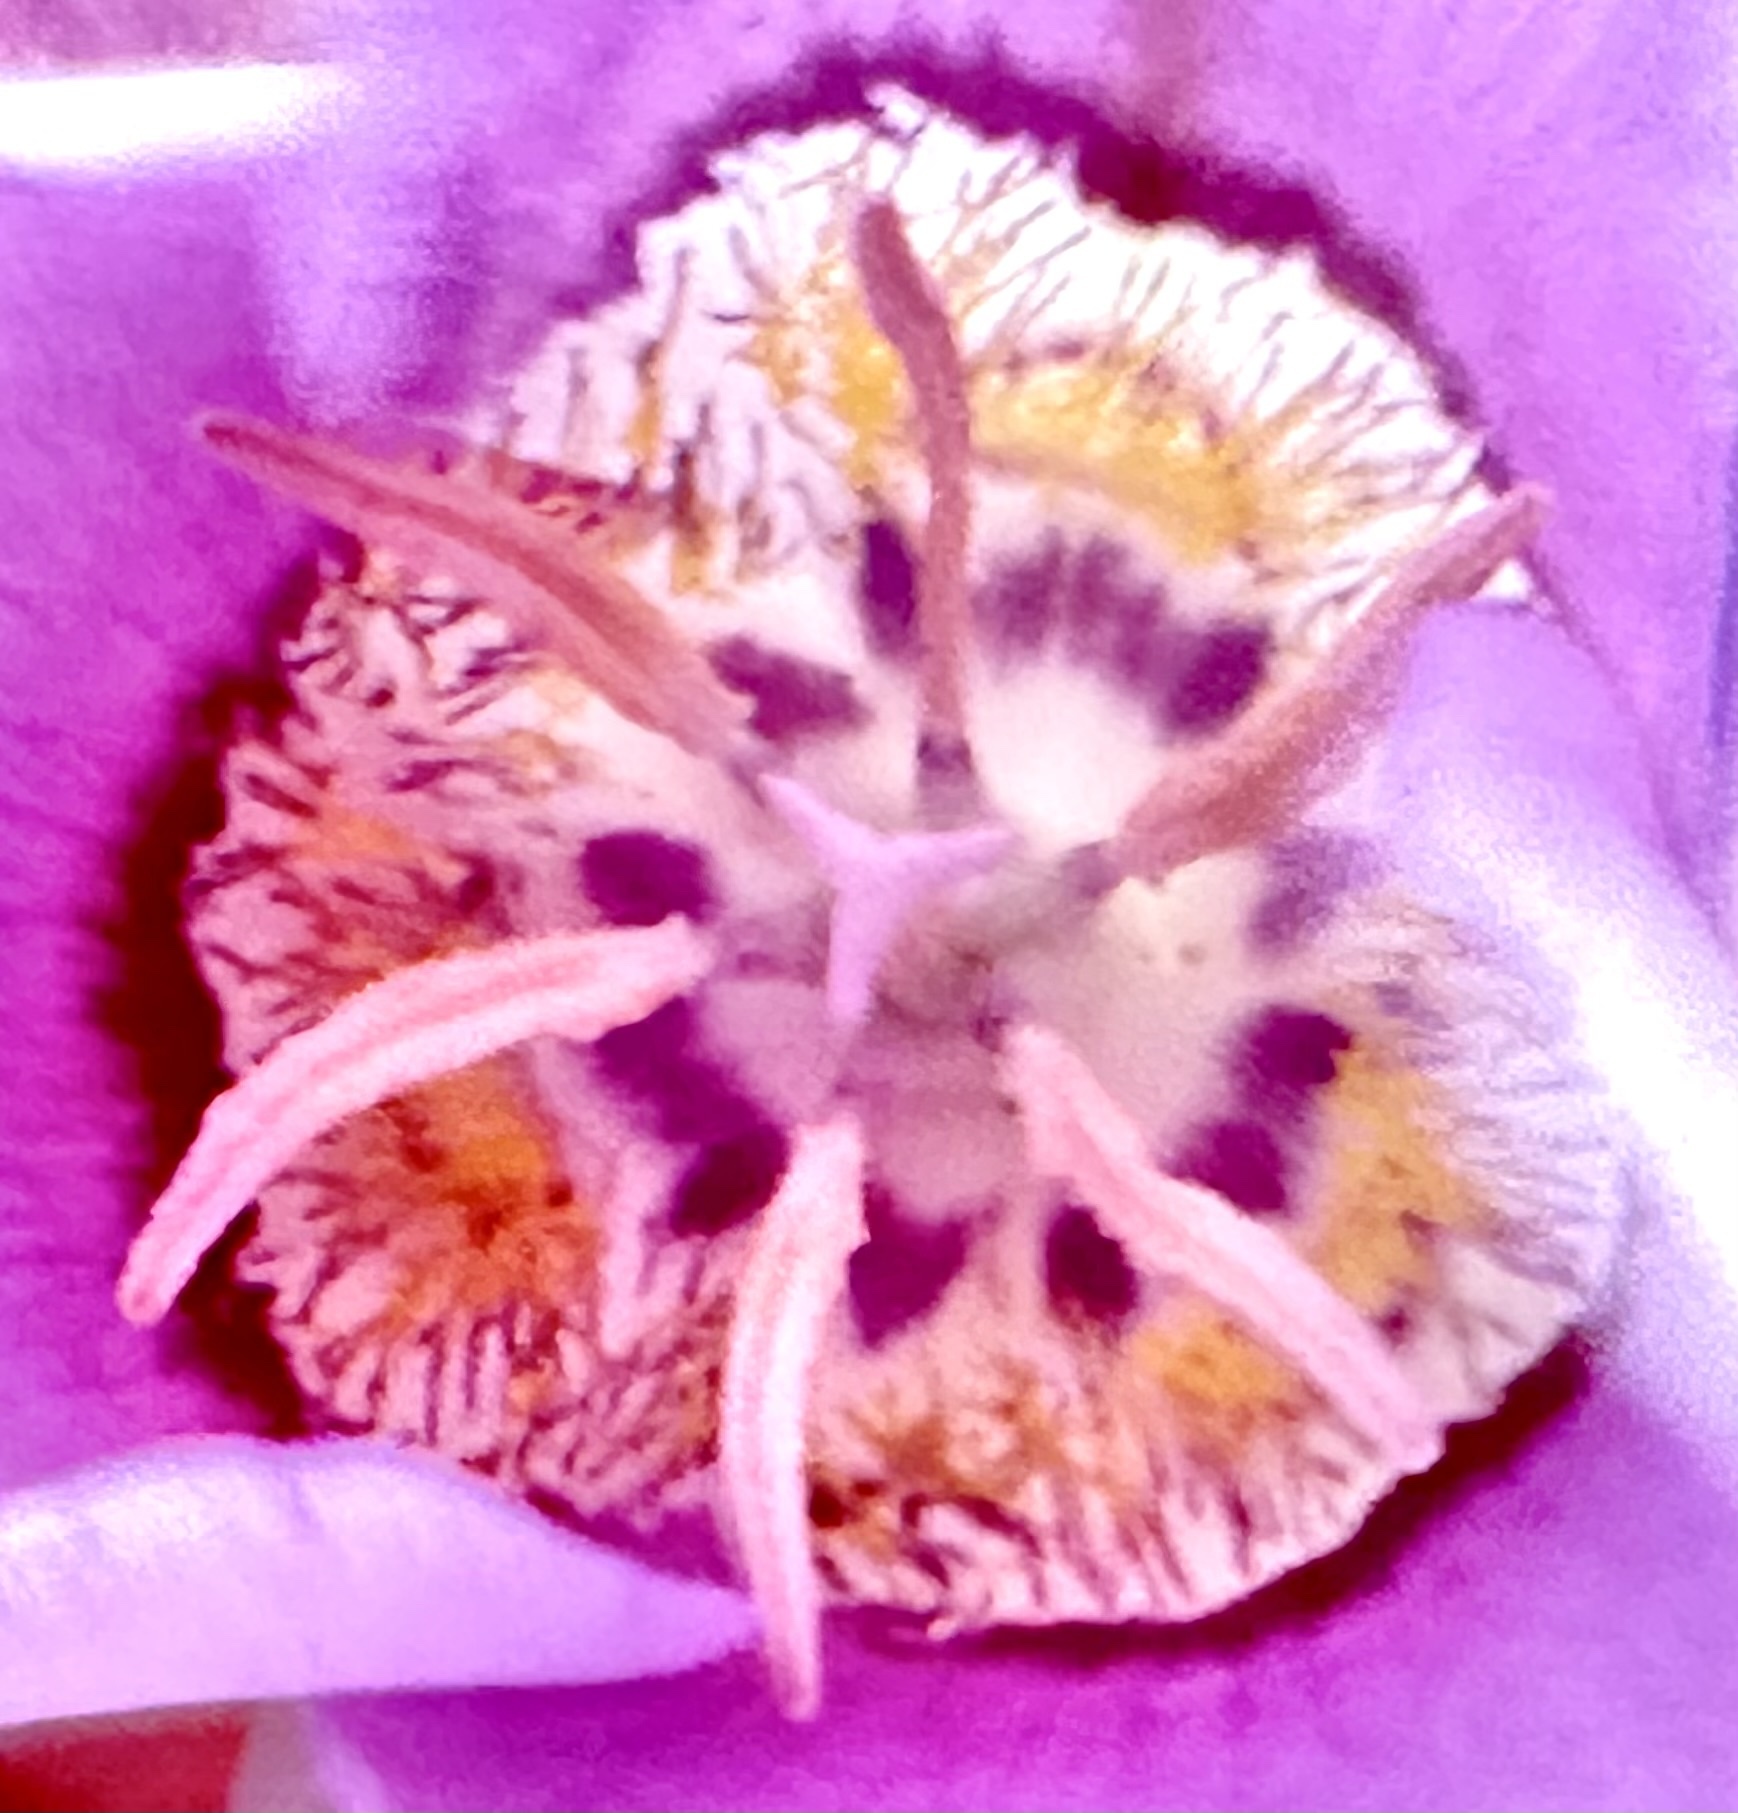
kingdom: Plantae
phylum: Tracheophyta
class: Liliopsida
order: Liliales
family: Liliaceae
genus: Calochortus
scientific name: Calochortus macrocarpus
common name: Green-band mariposa lily
